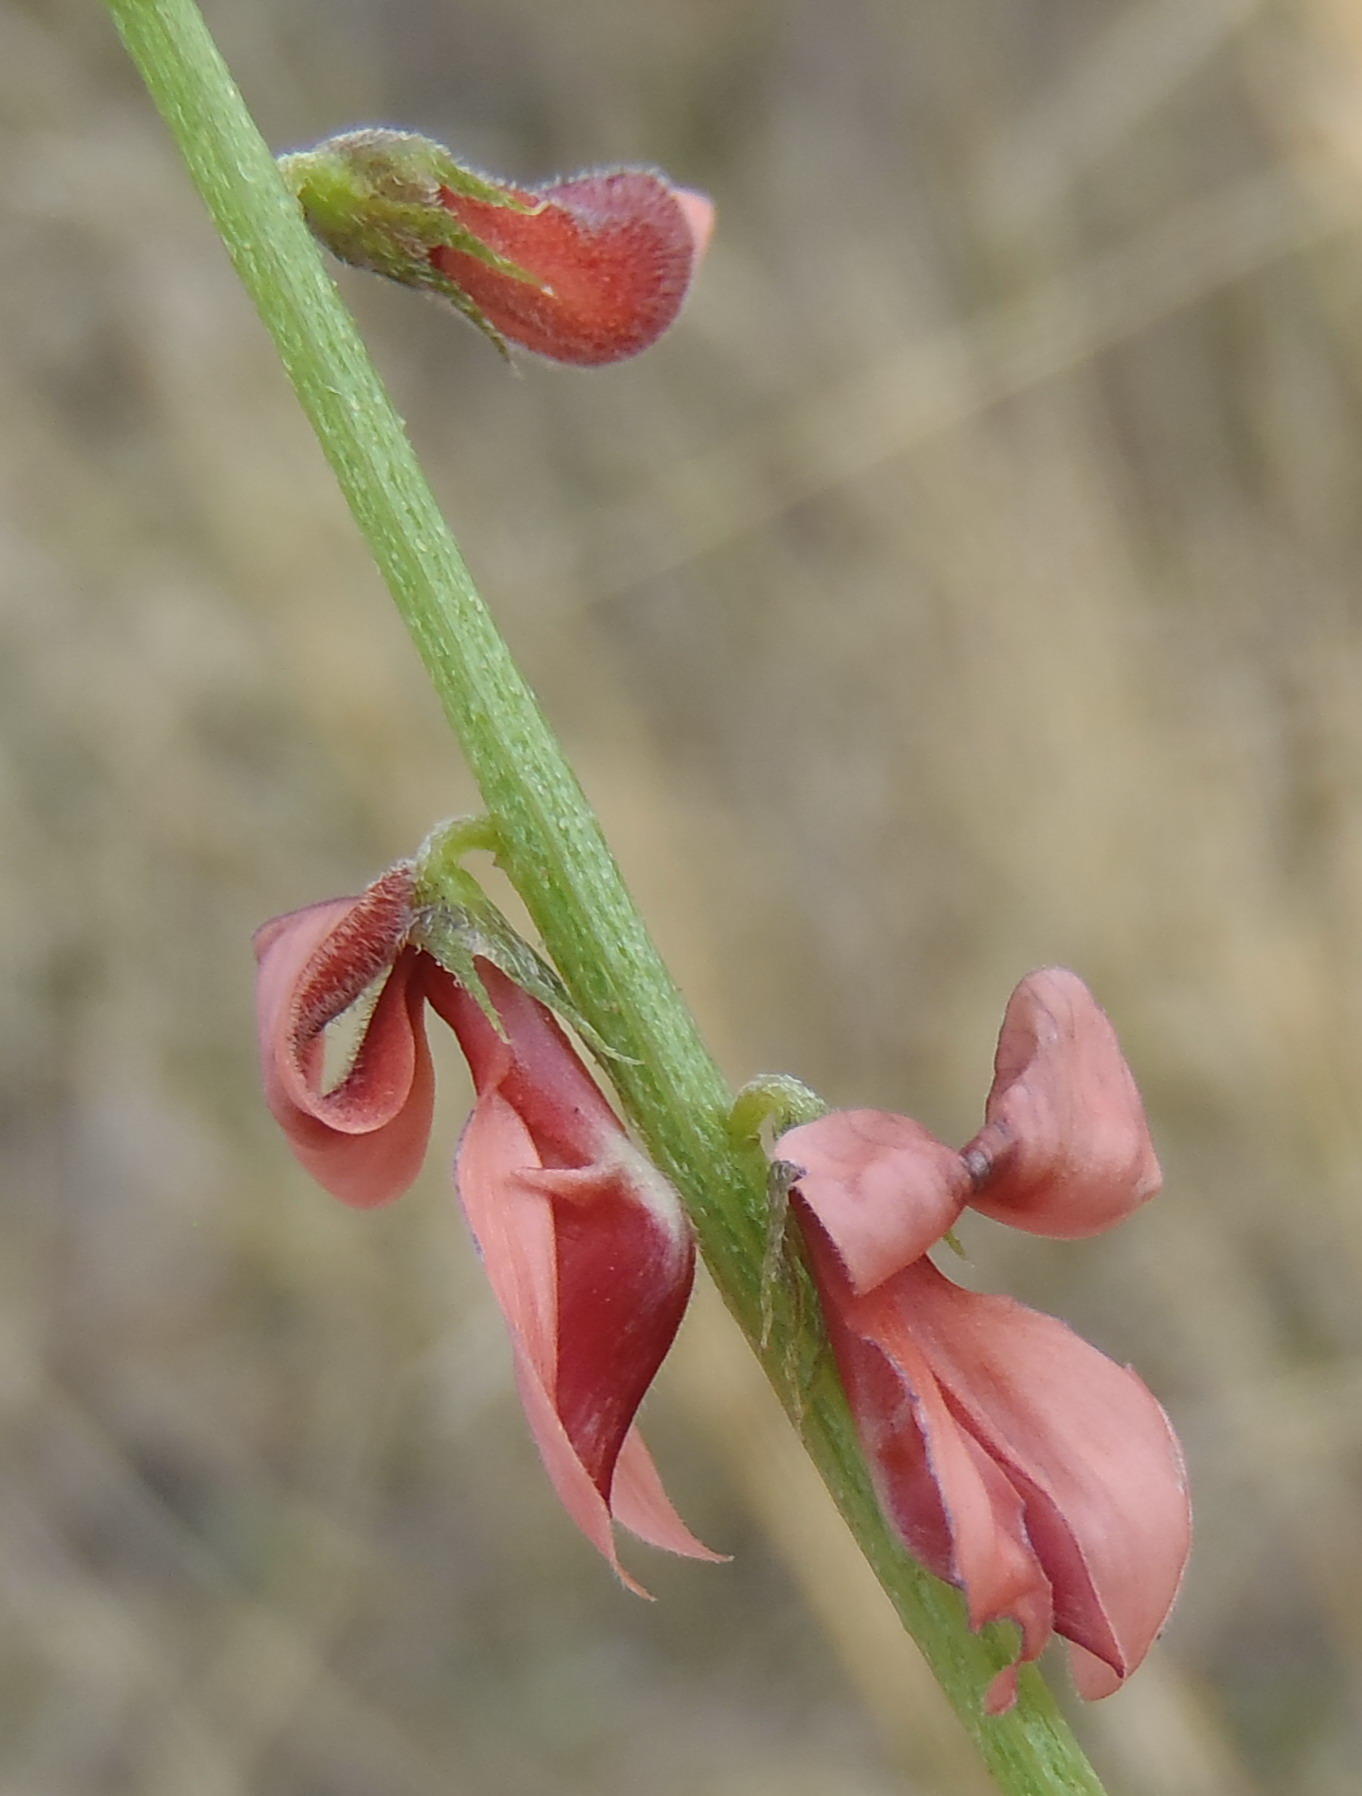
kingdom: Plantae
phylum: Tracheophyta
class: Magnoliopsida
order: Fabales
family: Fabaceae
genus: Indigofera
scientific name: Indigofera heterophylla
